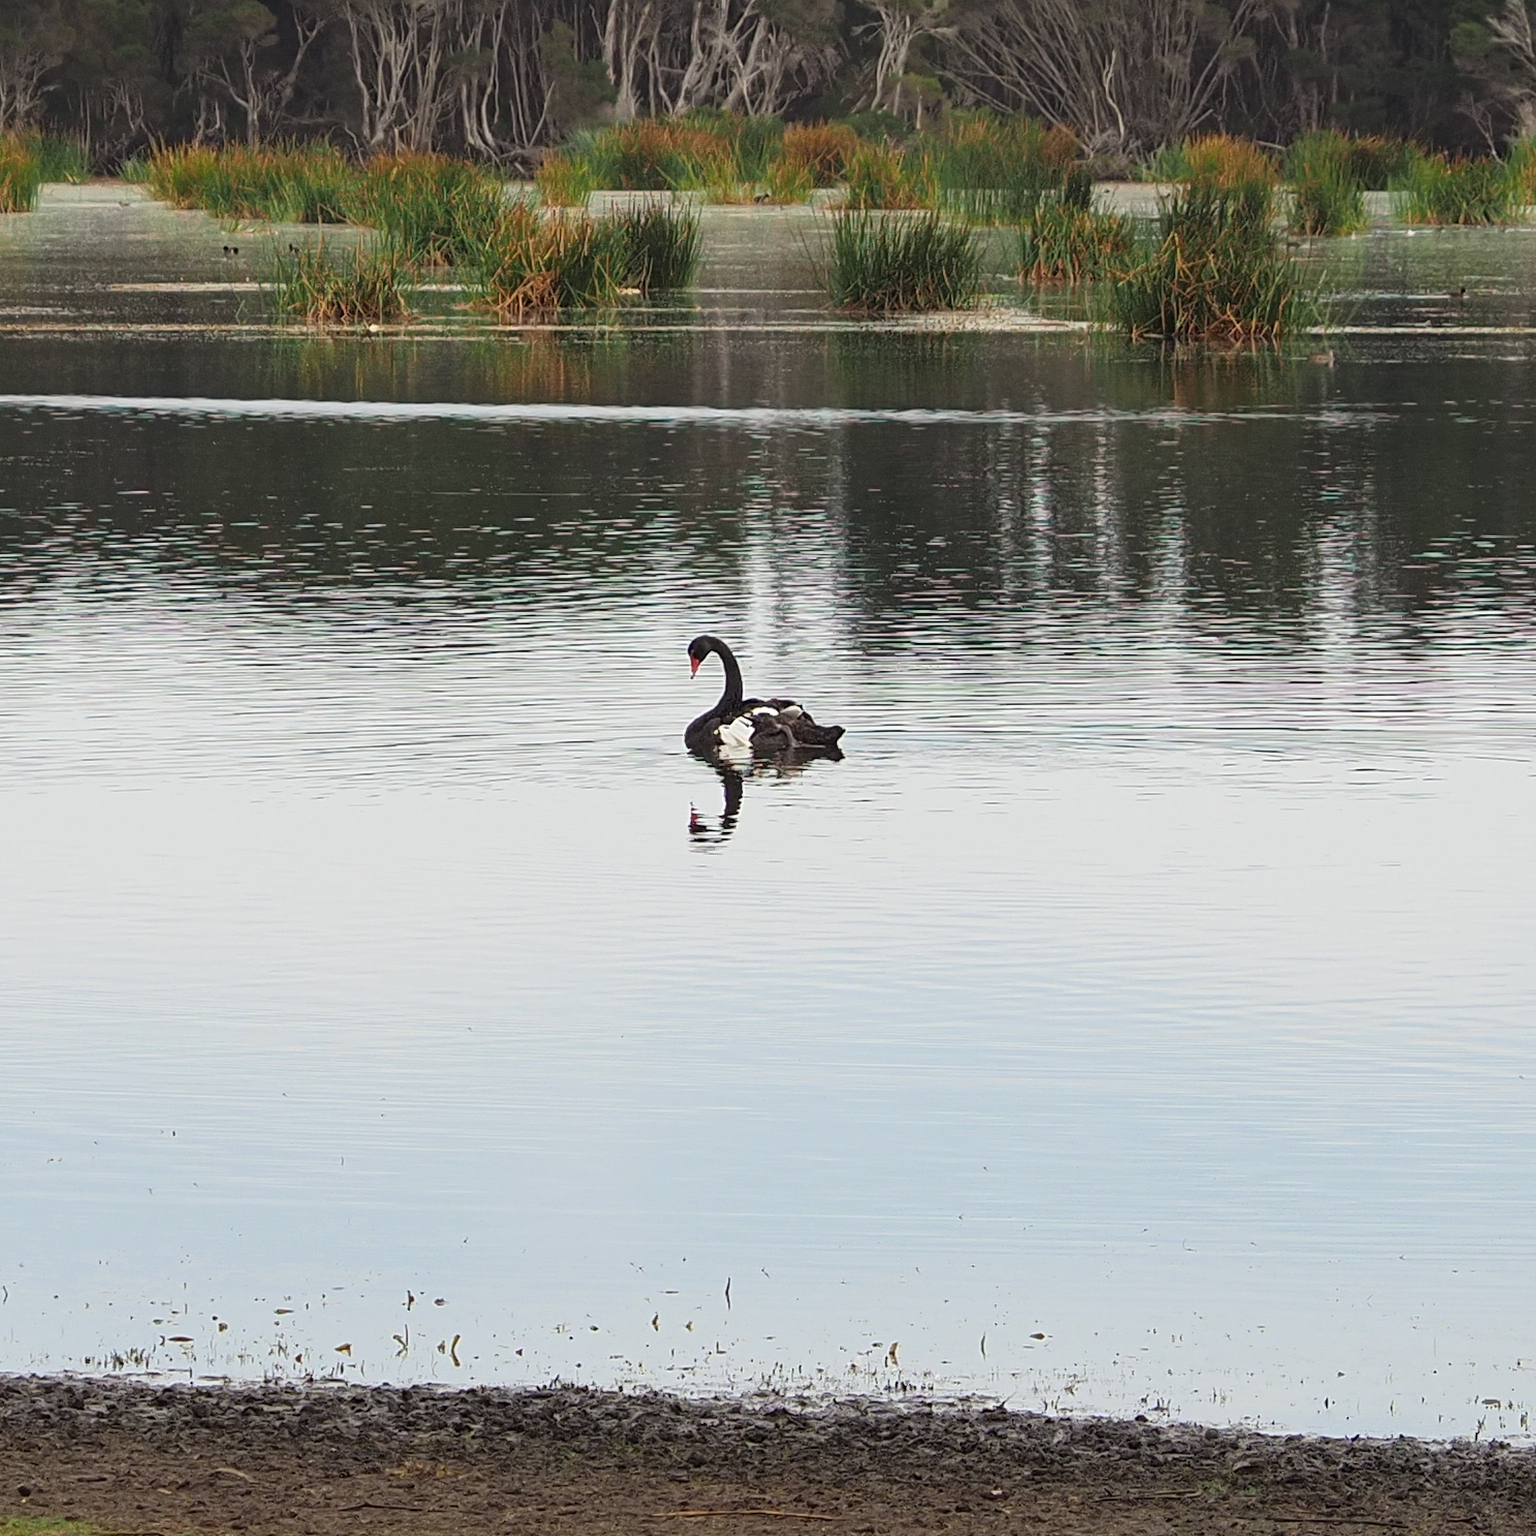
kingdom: Animalia
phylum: Chordata
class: Aves
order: Anseriformes
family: Anatidae
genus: Cygnus
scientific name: Cygnus atratus
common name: Black swan
